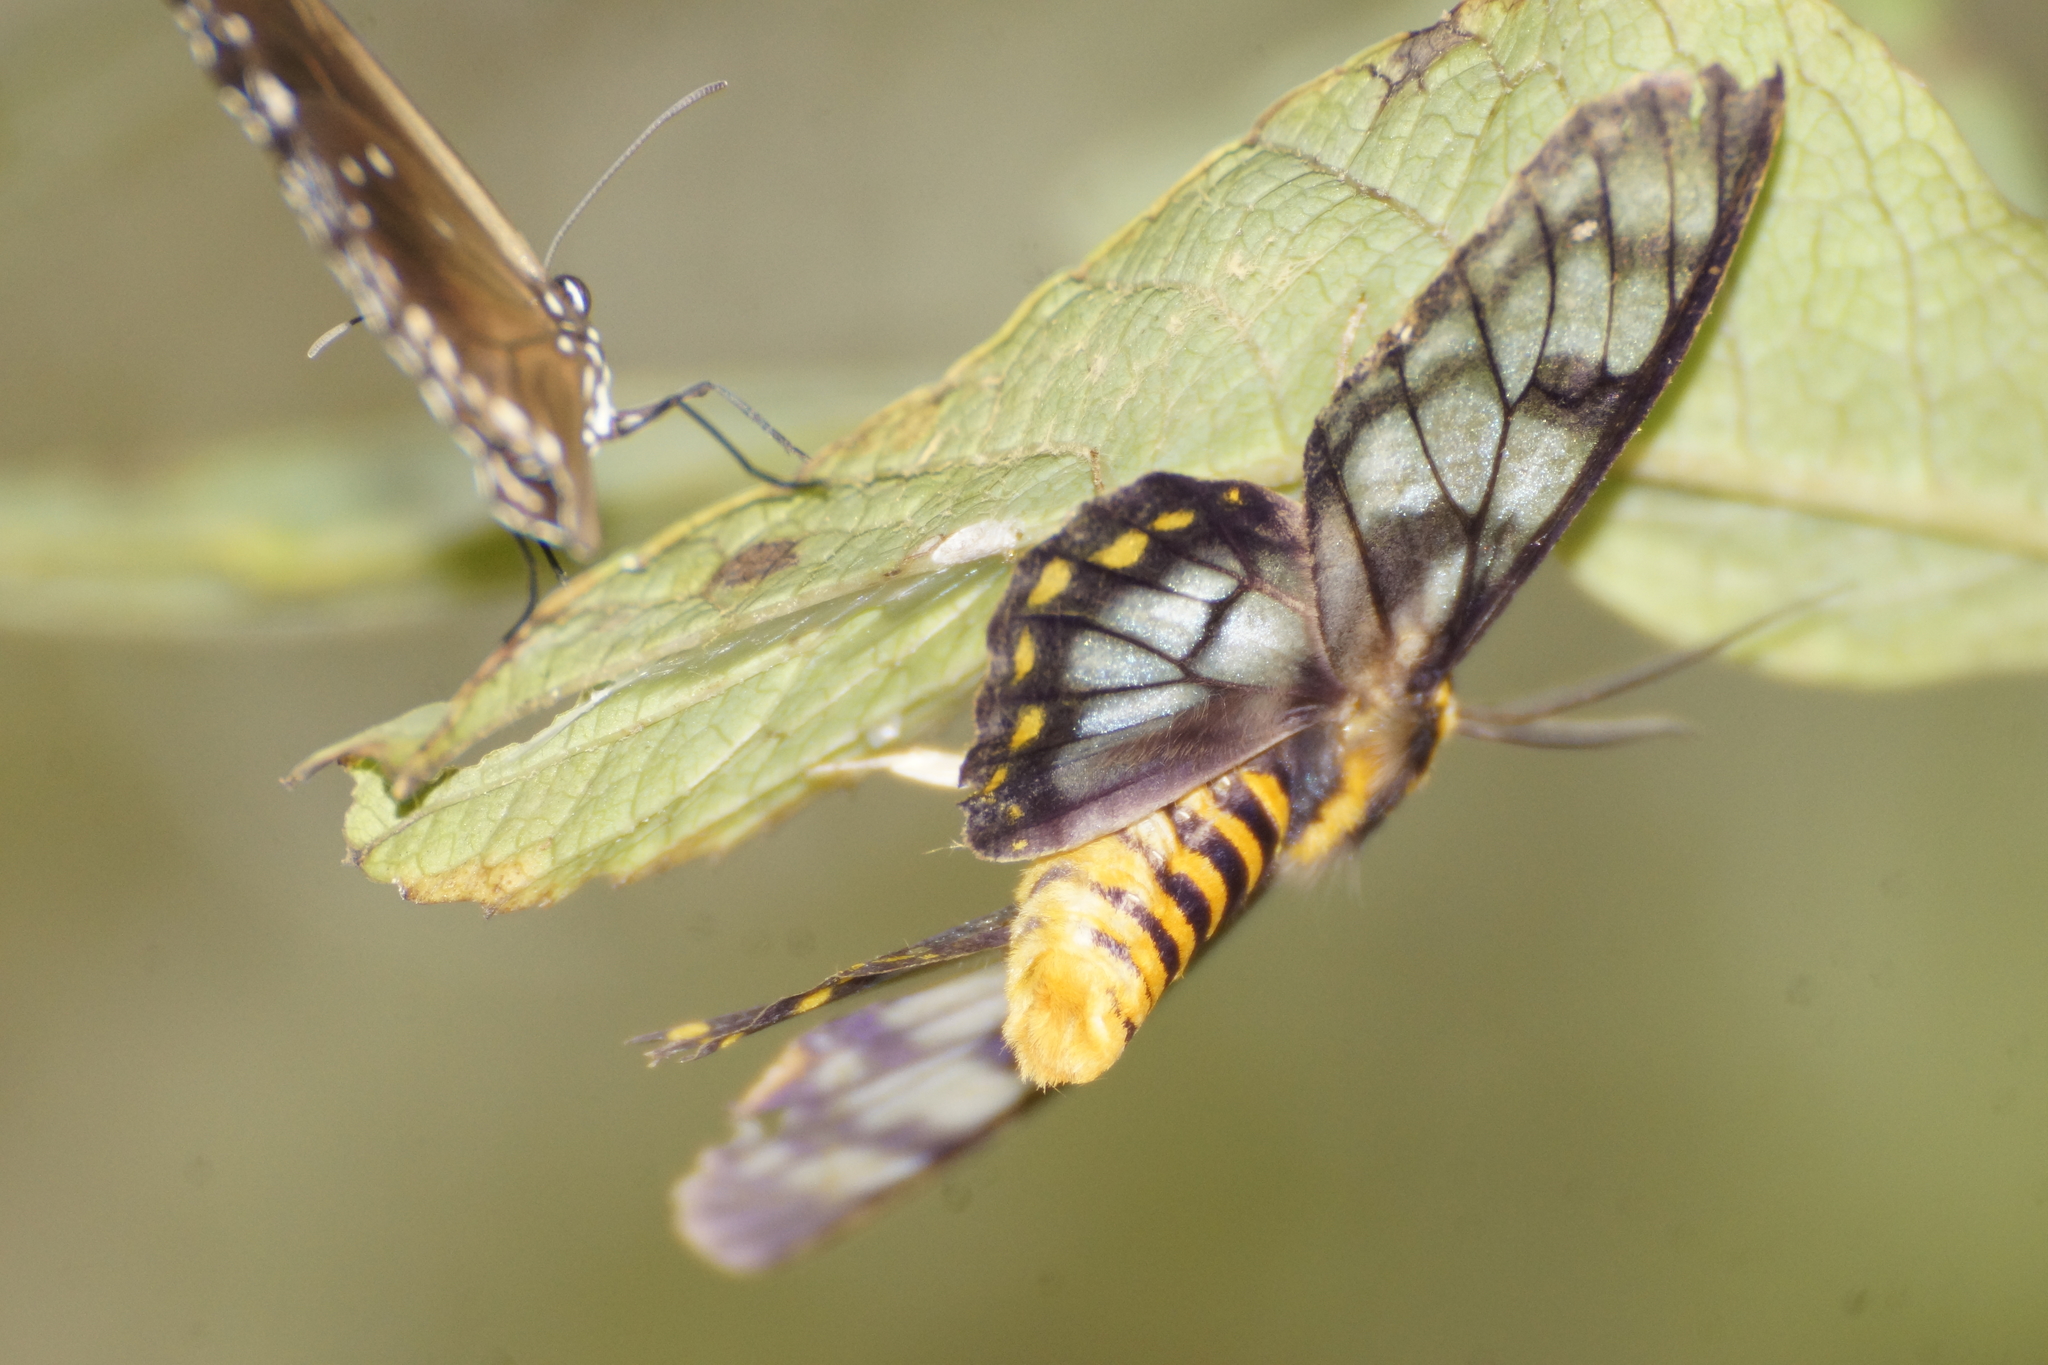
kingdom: Animalia
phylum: Arthropoda
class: Insecta
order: Lepidoptera
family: Geometridae
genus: Dysphania
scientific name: Dysphania numana
